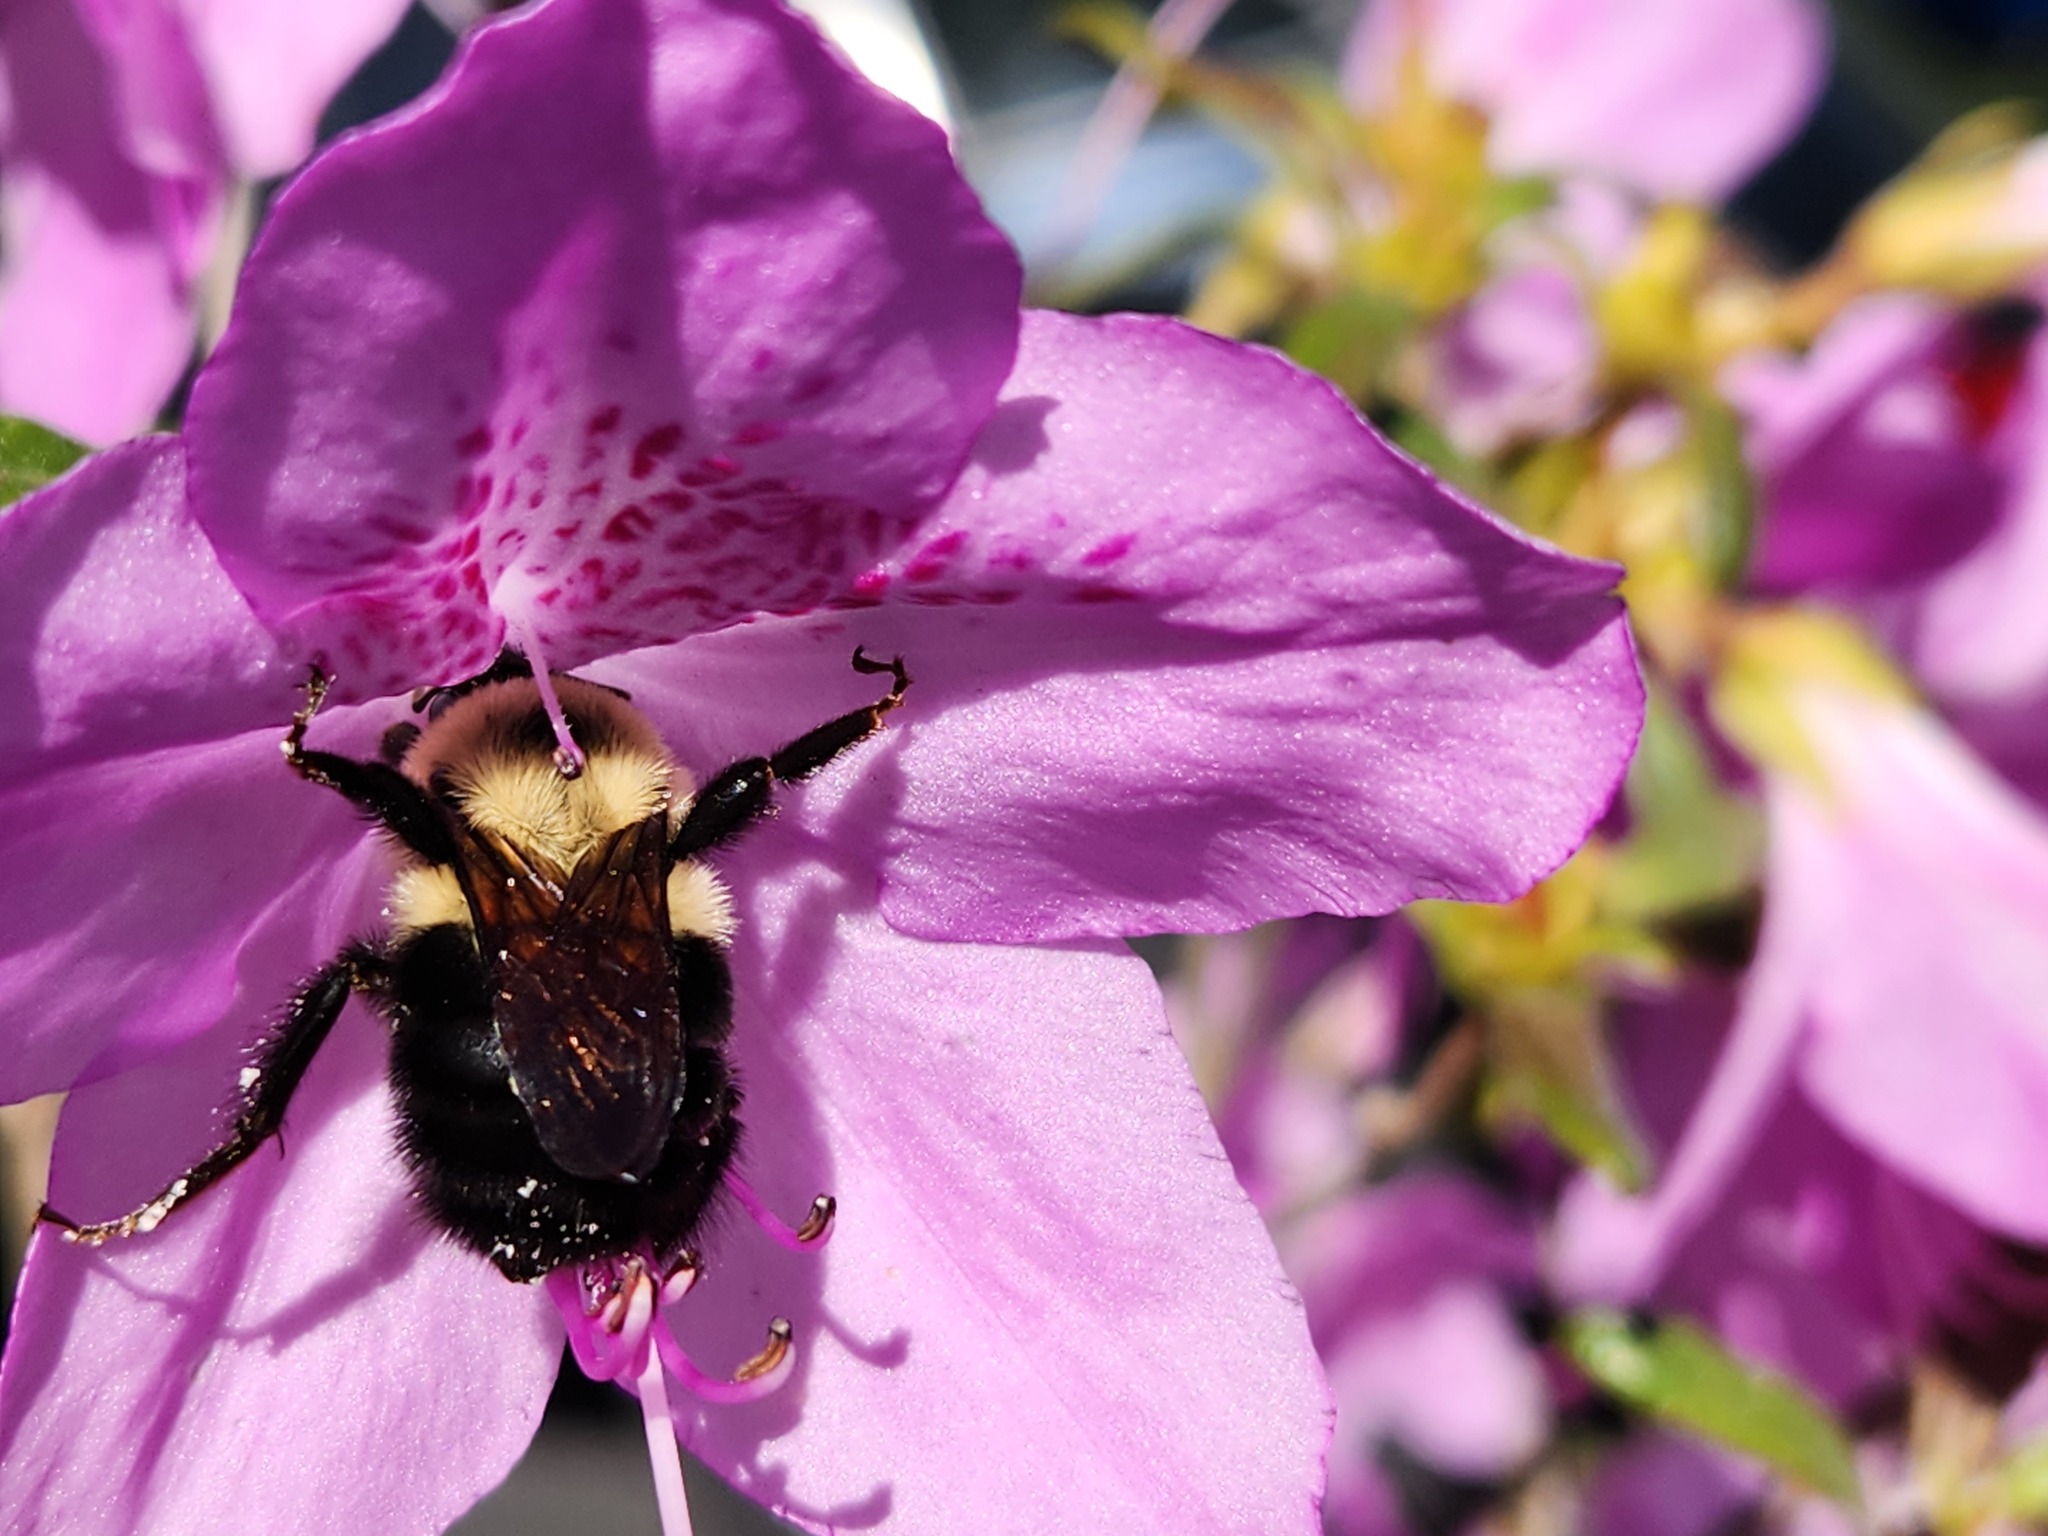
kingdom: Animalia
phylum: Arthropoda
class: Insecta
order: Hymenoptera
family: Apidae
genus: Bombus
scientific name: Bombus bimaculatus
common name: Two-spotted bumble bee
